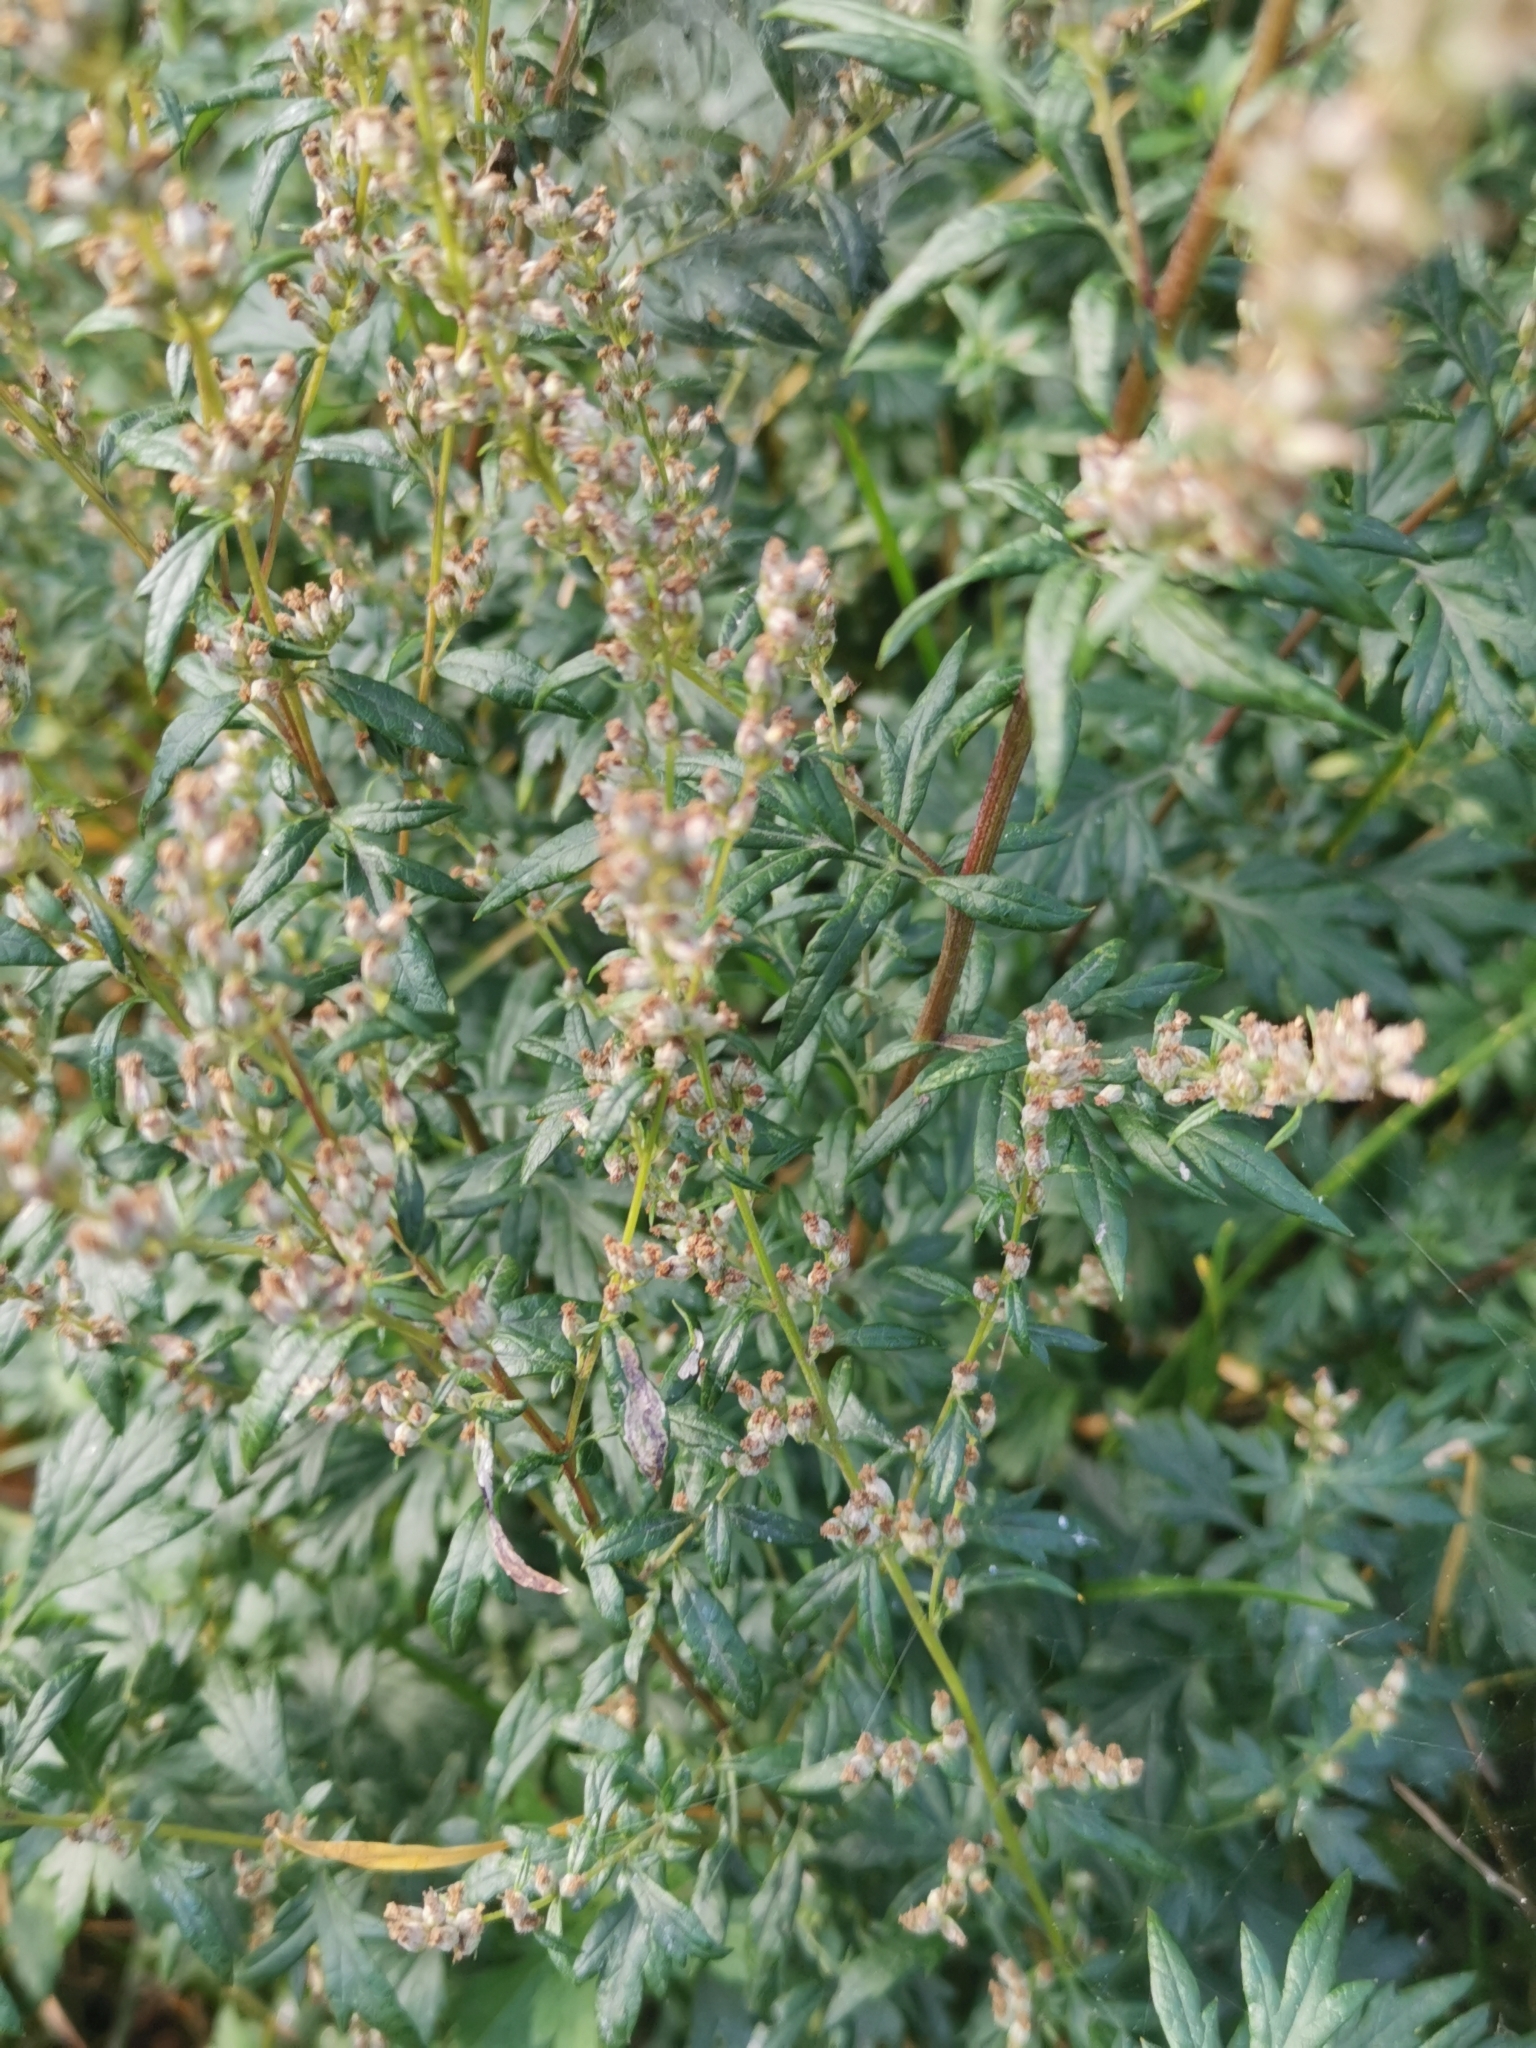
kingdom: Plantae
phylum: Tracheophyta
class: Magnoliopsida
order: Asterales
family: Asteraceae
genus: Artemisia
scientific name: Artemisia vulgaris
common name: Mugwort
